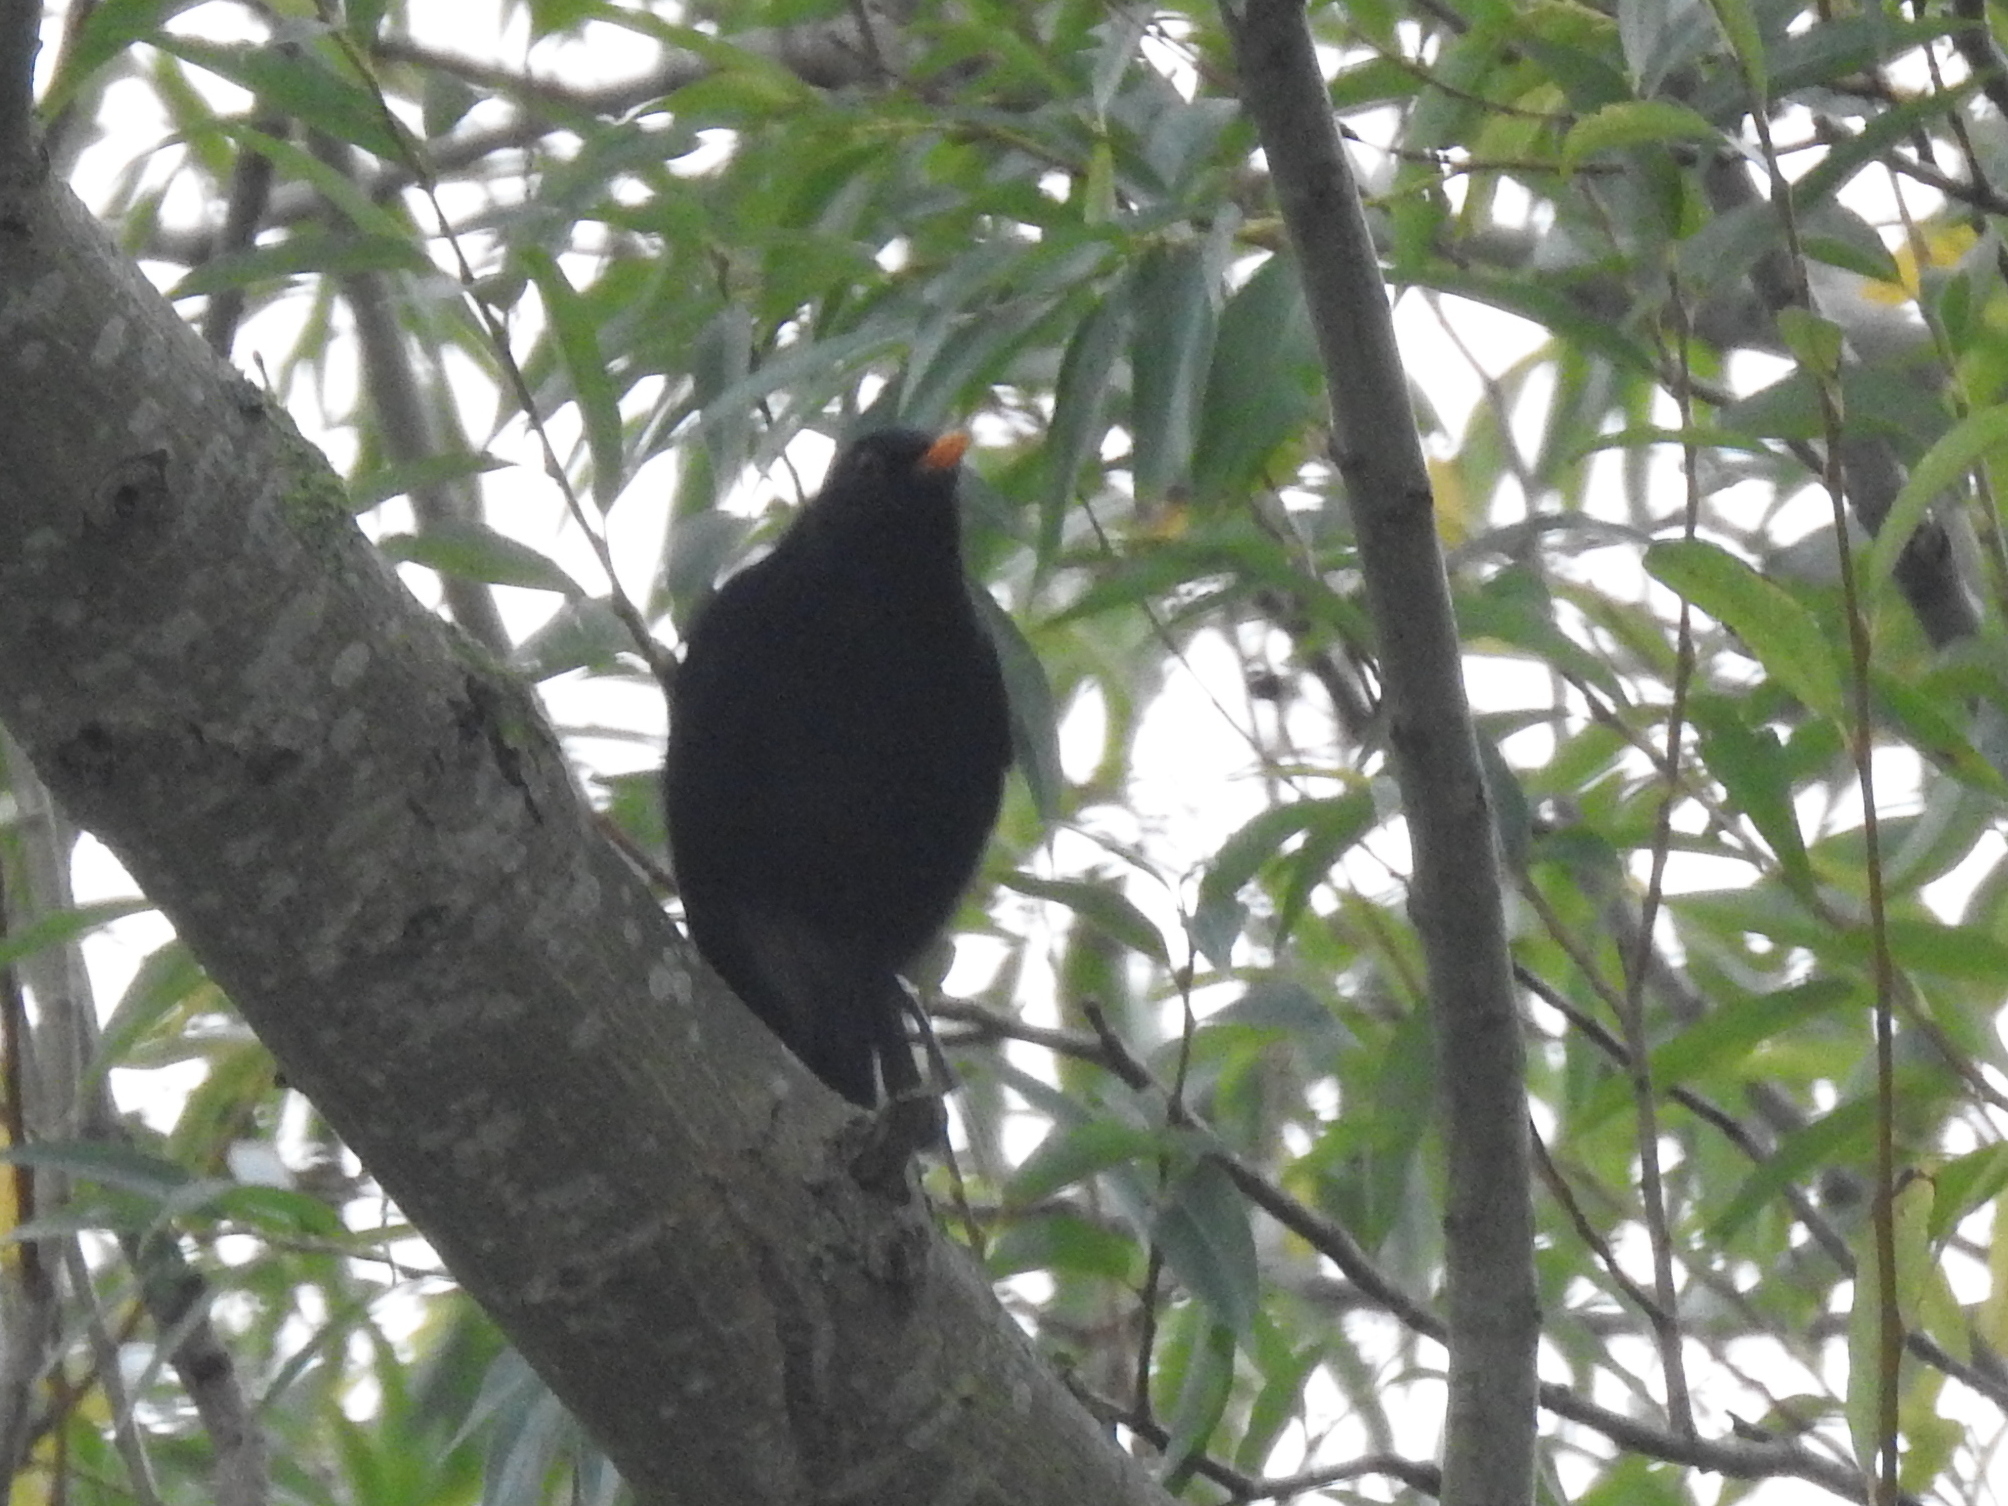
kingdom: Animalia
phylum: Chordata
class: Aves
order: Passeriformes
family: Turdidae
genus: Turdus
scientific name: Turdus merula
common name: Common blackbird
